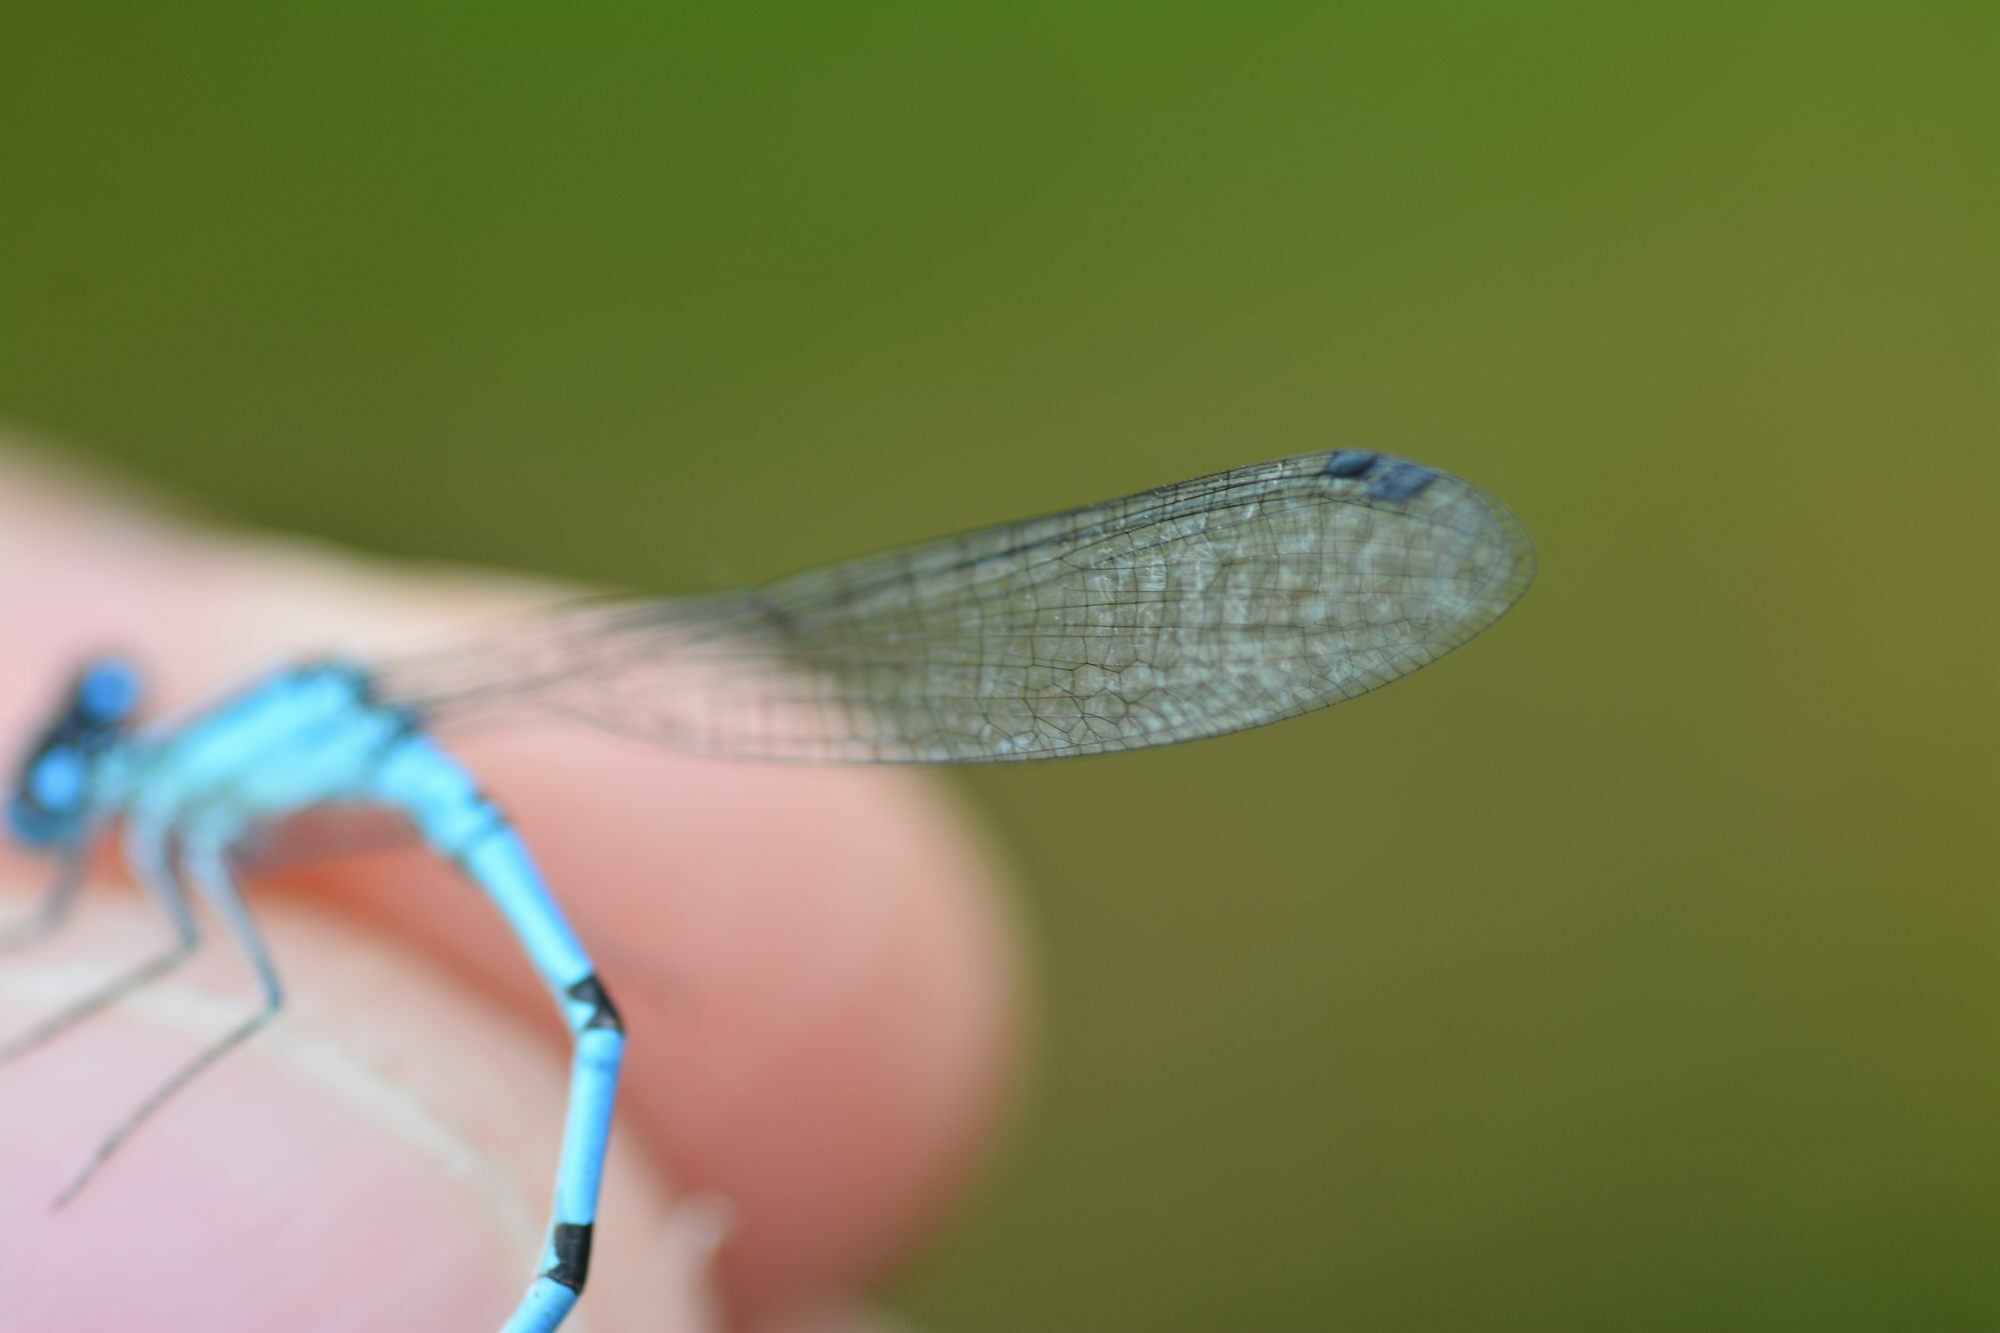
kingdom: Animalia
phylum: Arthropoda
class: Insecta
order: Odonata
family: Coenagrionidae
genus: Enallagma
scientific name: Enallagma cyathigerum
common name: Common blue damselfly
